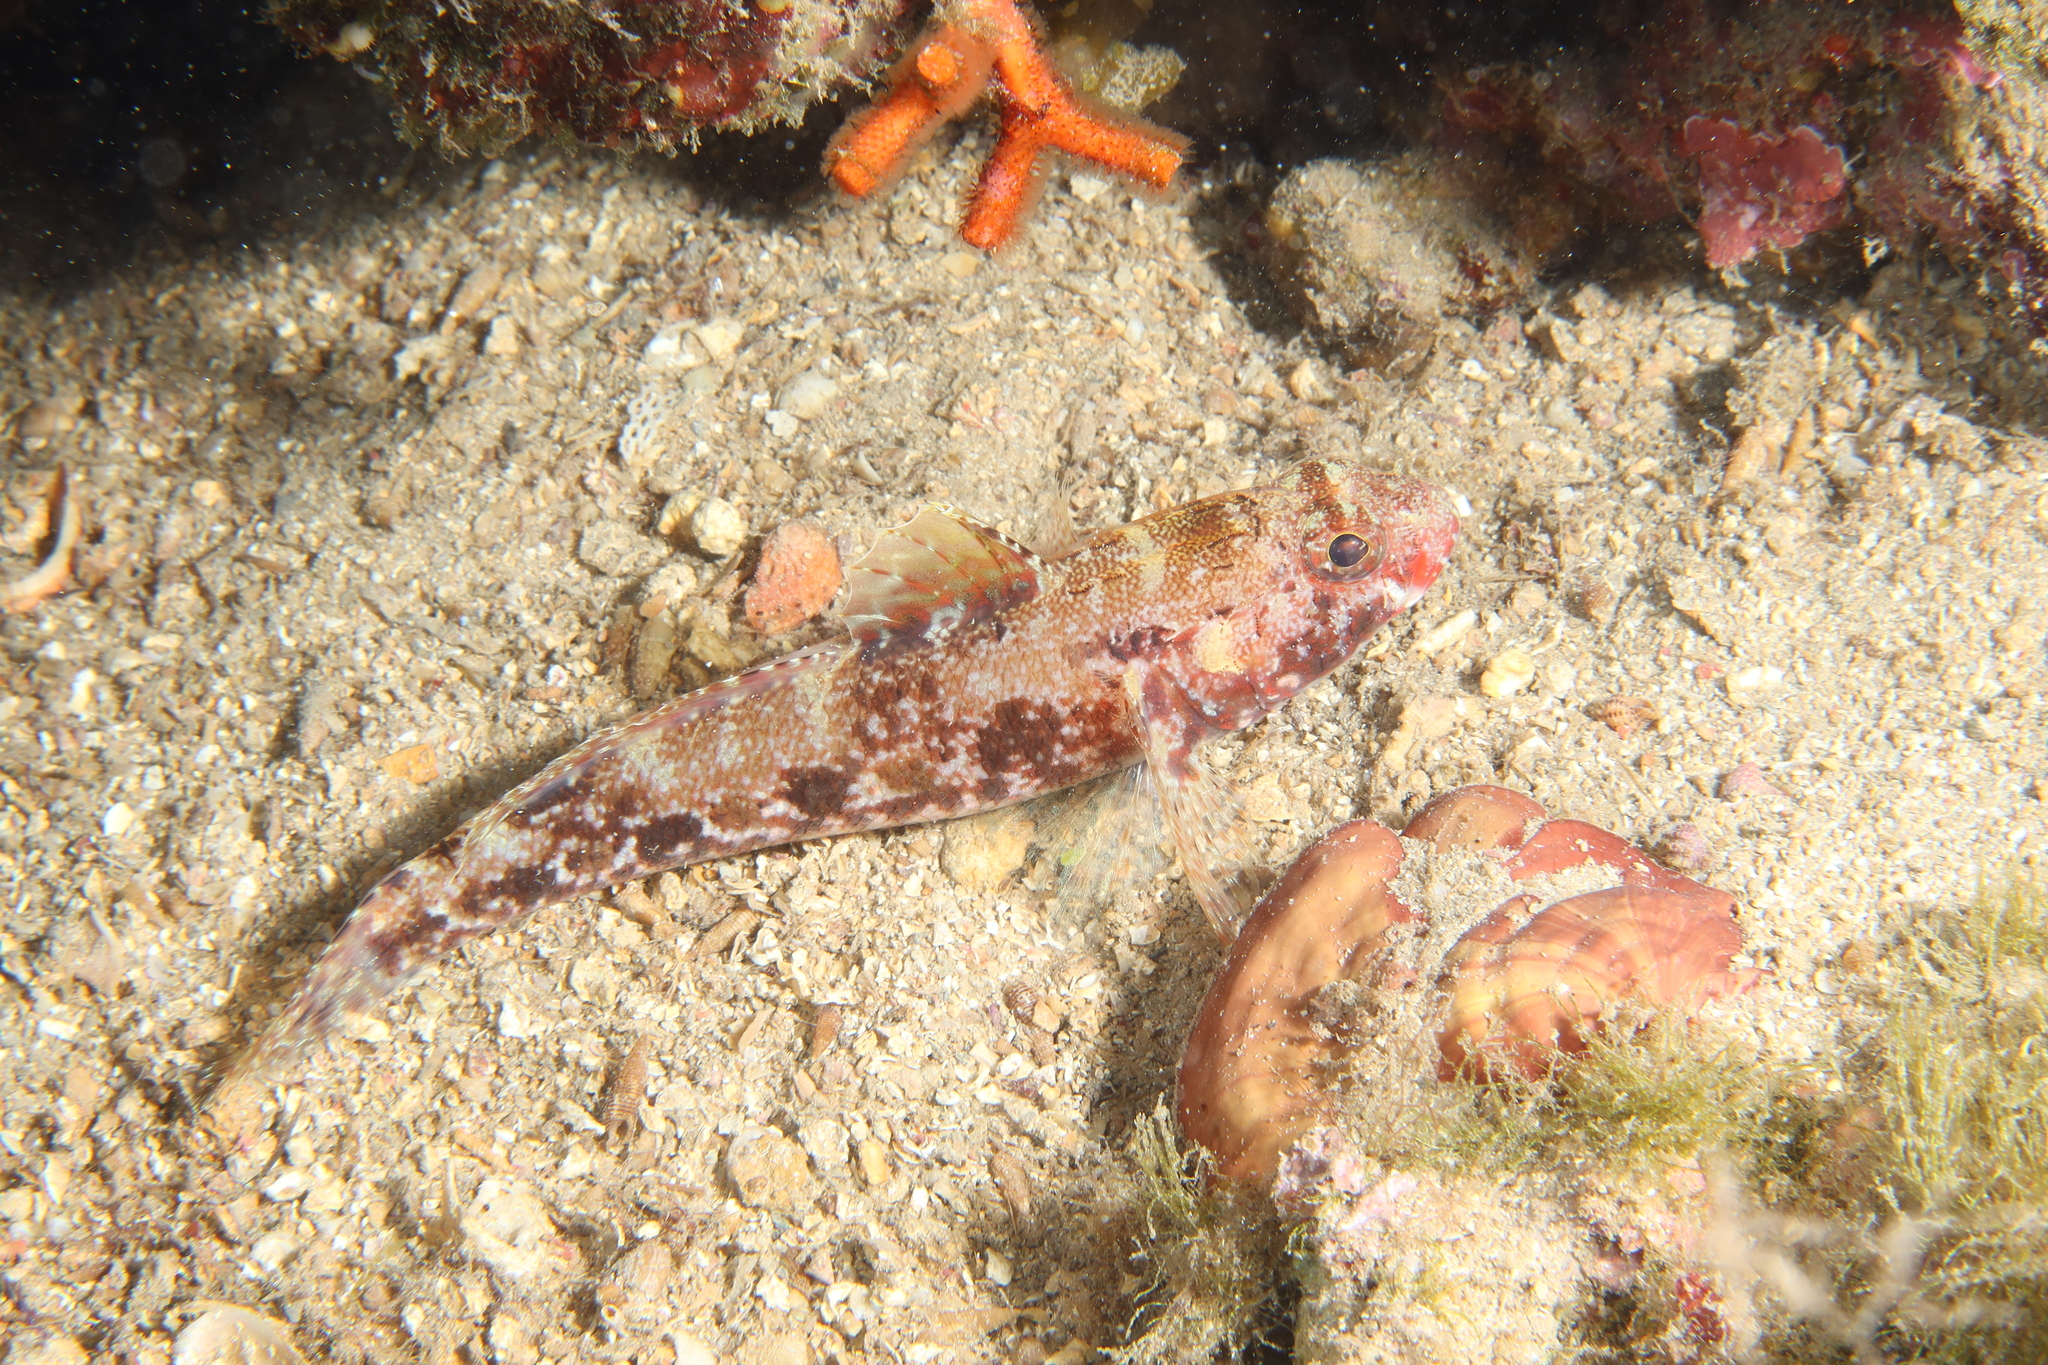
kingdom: Animalia
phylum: Chordata
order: Perciformes
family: Gobiidae
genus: Gobius
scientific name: Gobius cruentatus
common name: Red-mouthed goby
